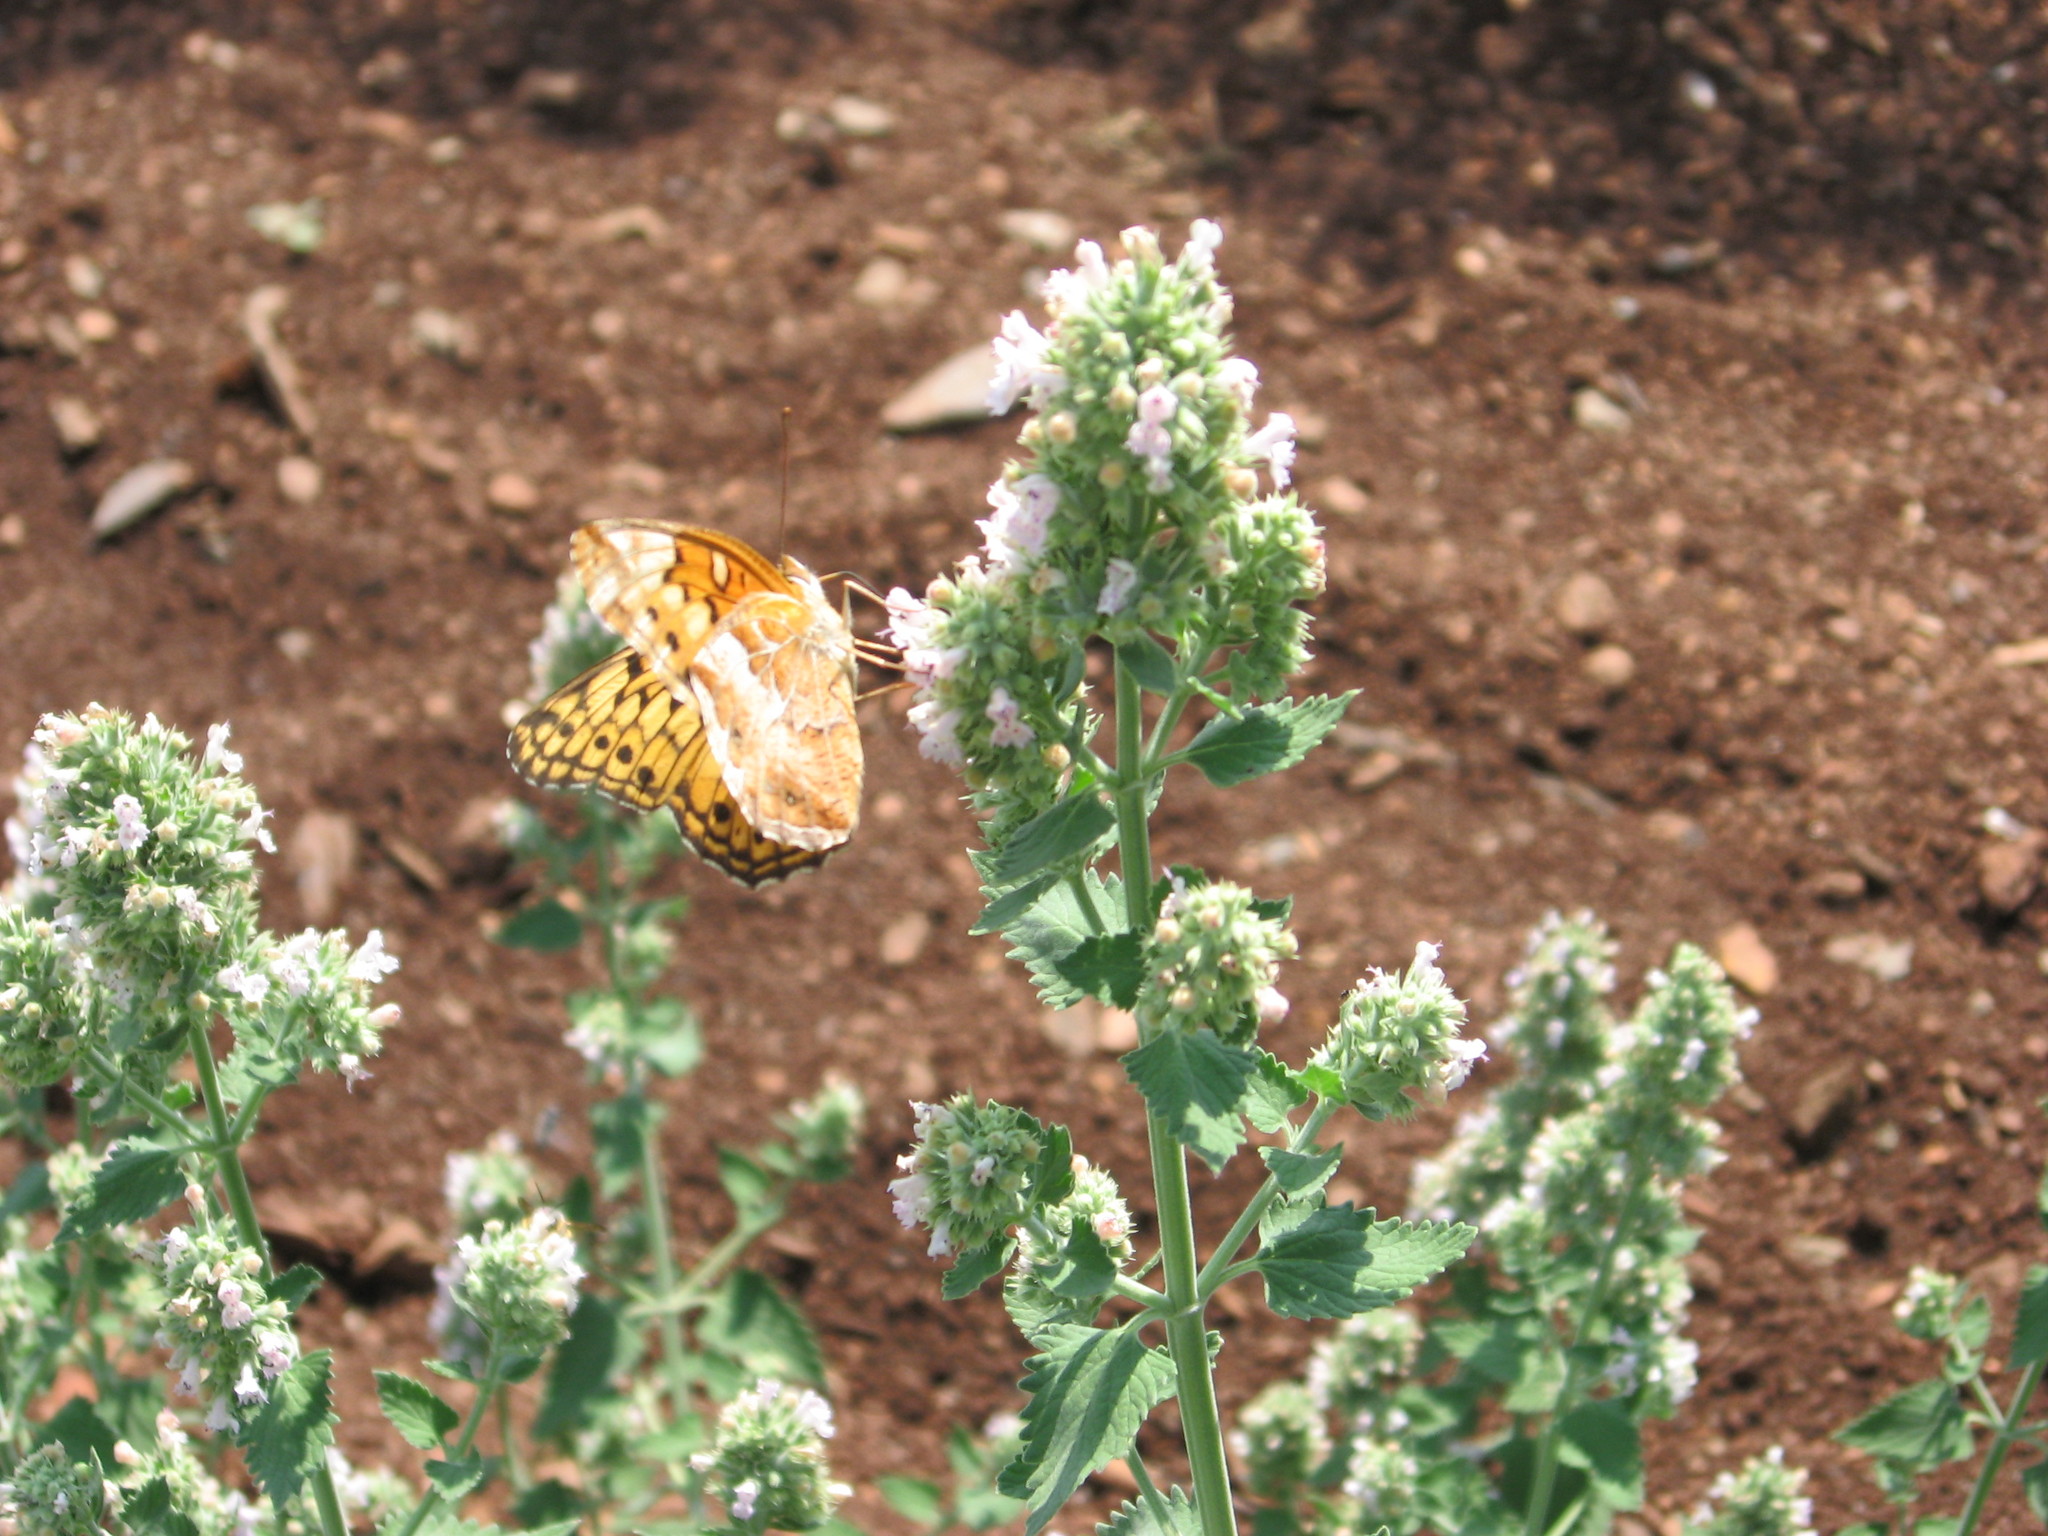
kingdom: Animalia
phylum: Arthropoda
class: Insecta
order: Lepidoptera
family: Nymphalidae
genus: Euptoieta
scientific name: Euptoieta claudia
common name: Variegated fritillary
